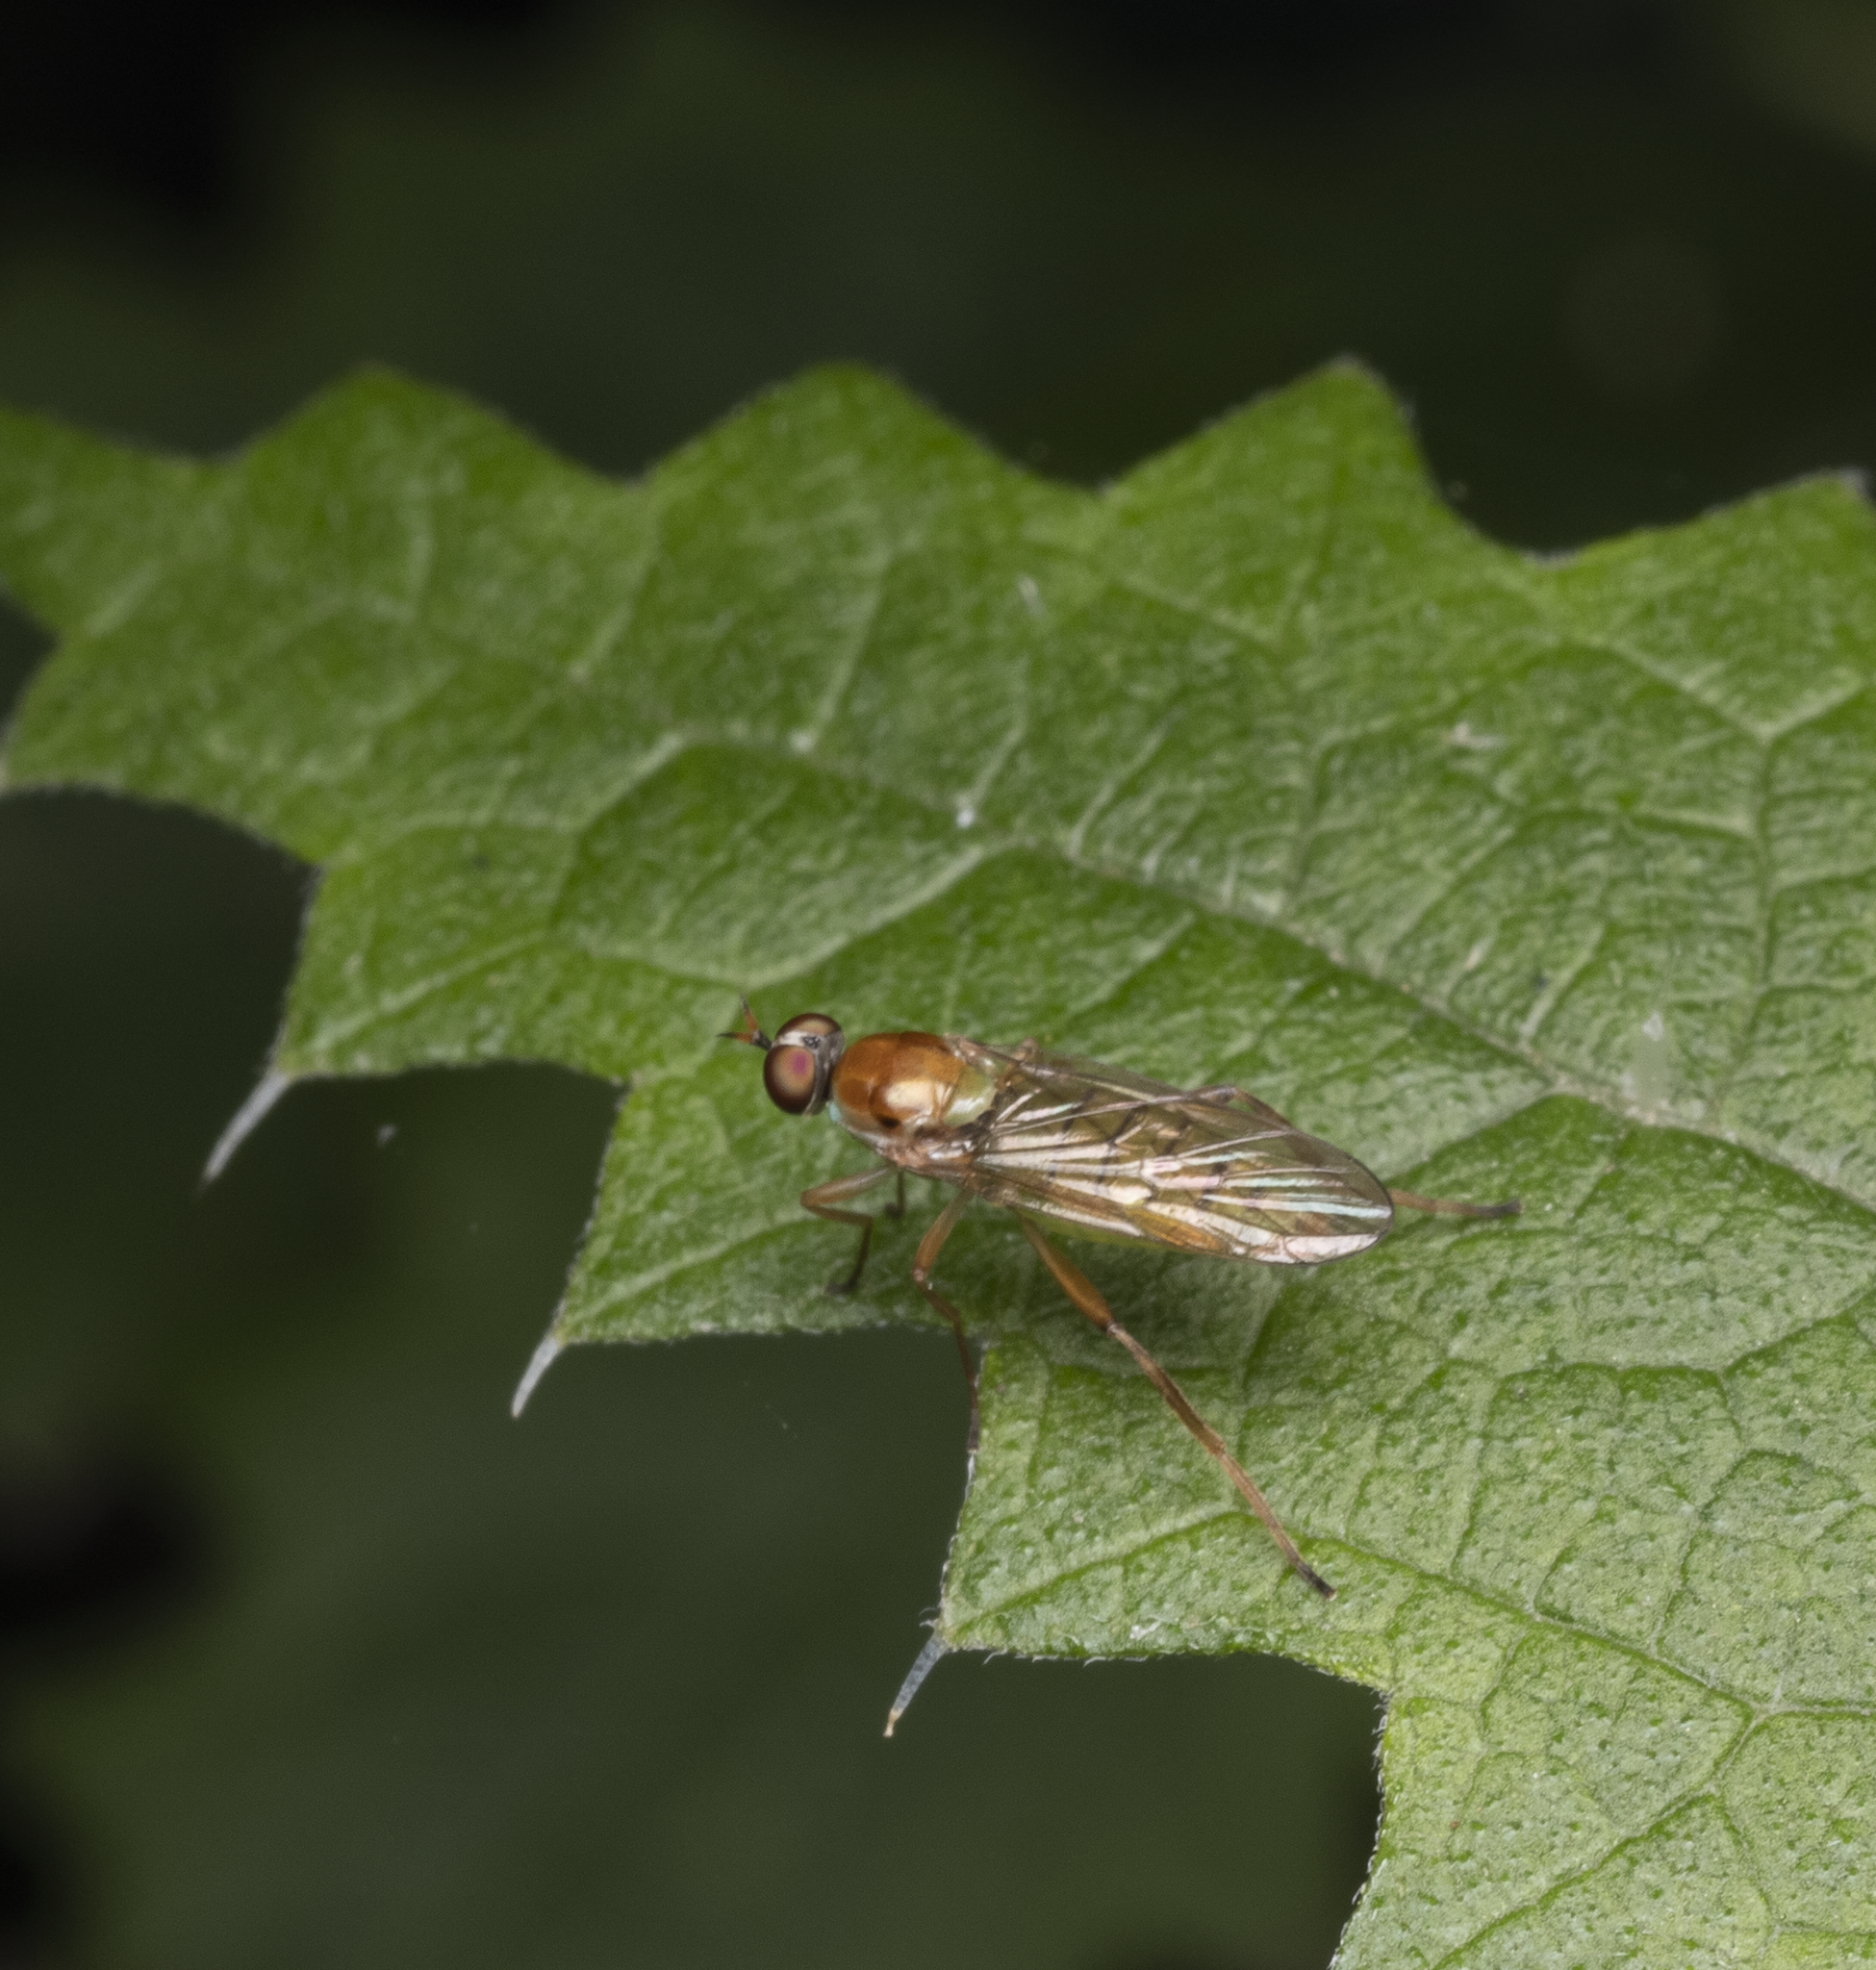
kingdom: Animalia
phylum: Arthropoda
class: Insecta
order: Diptera
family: Stratiomyidae
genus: Australoberis
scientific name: Australoberis refugians
